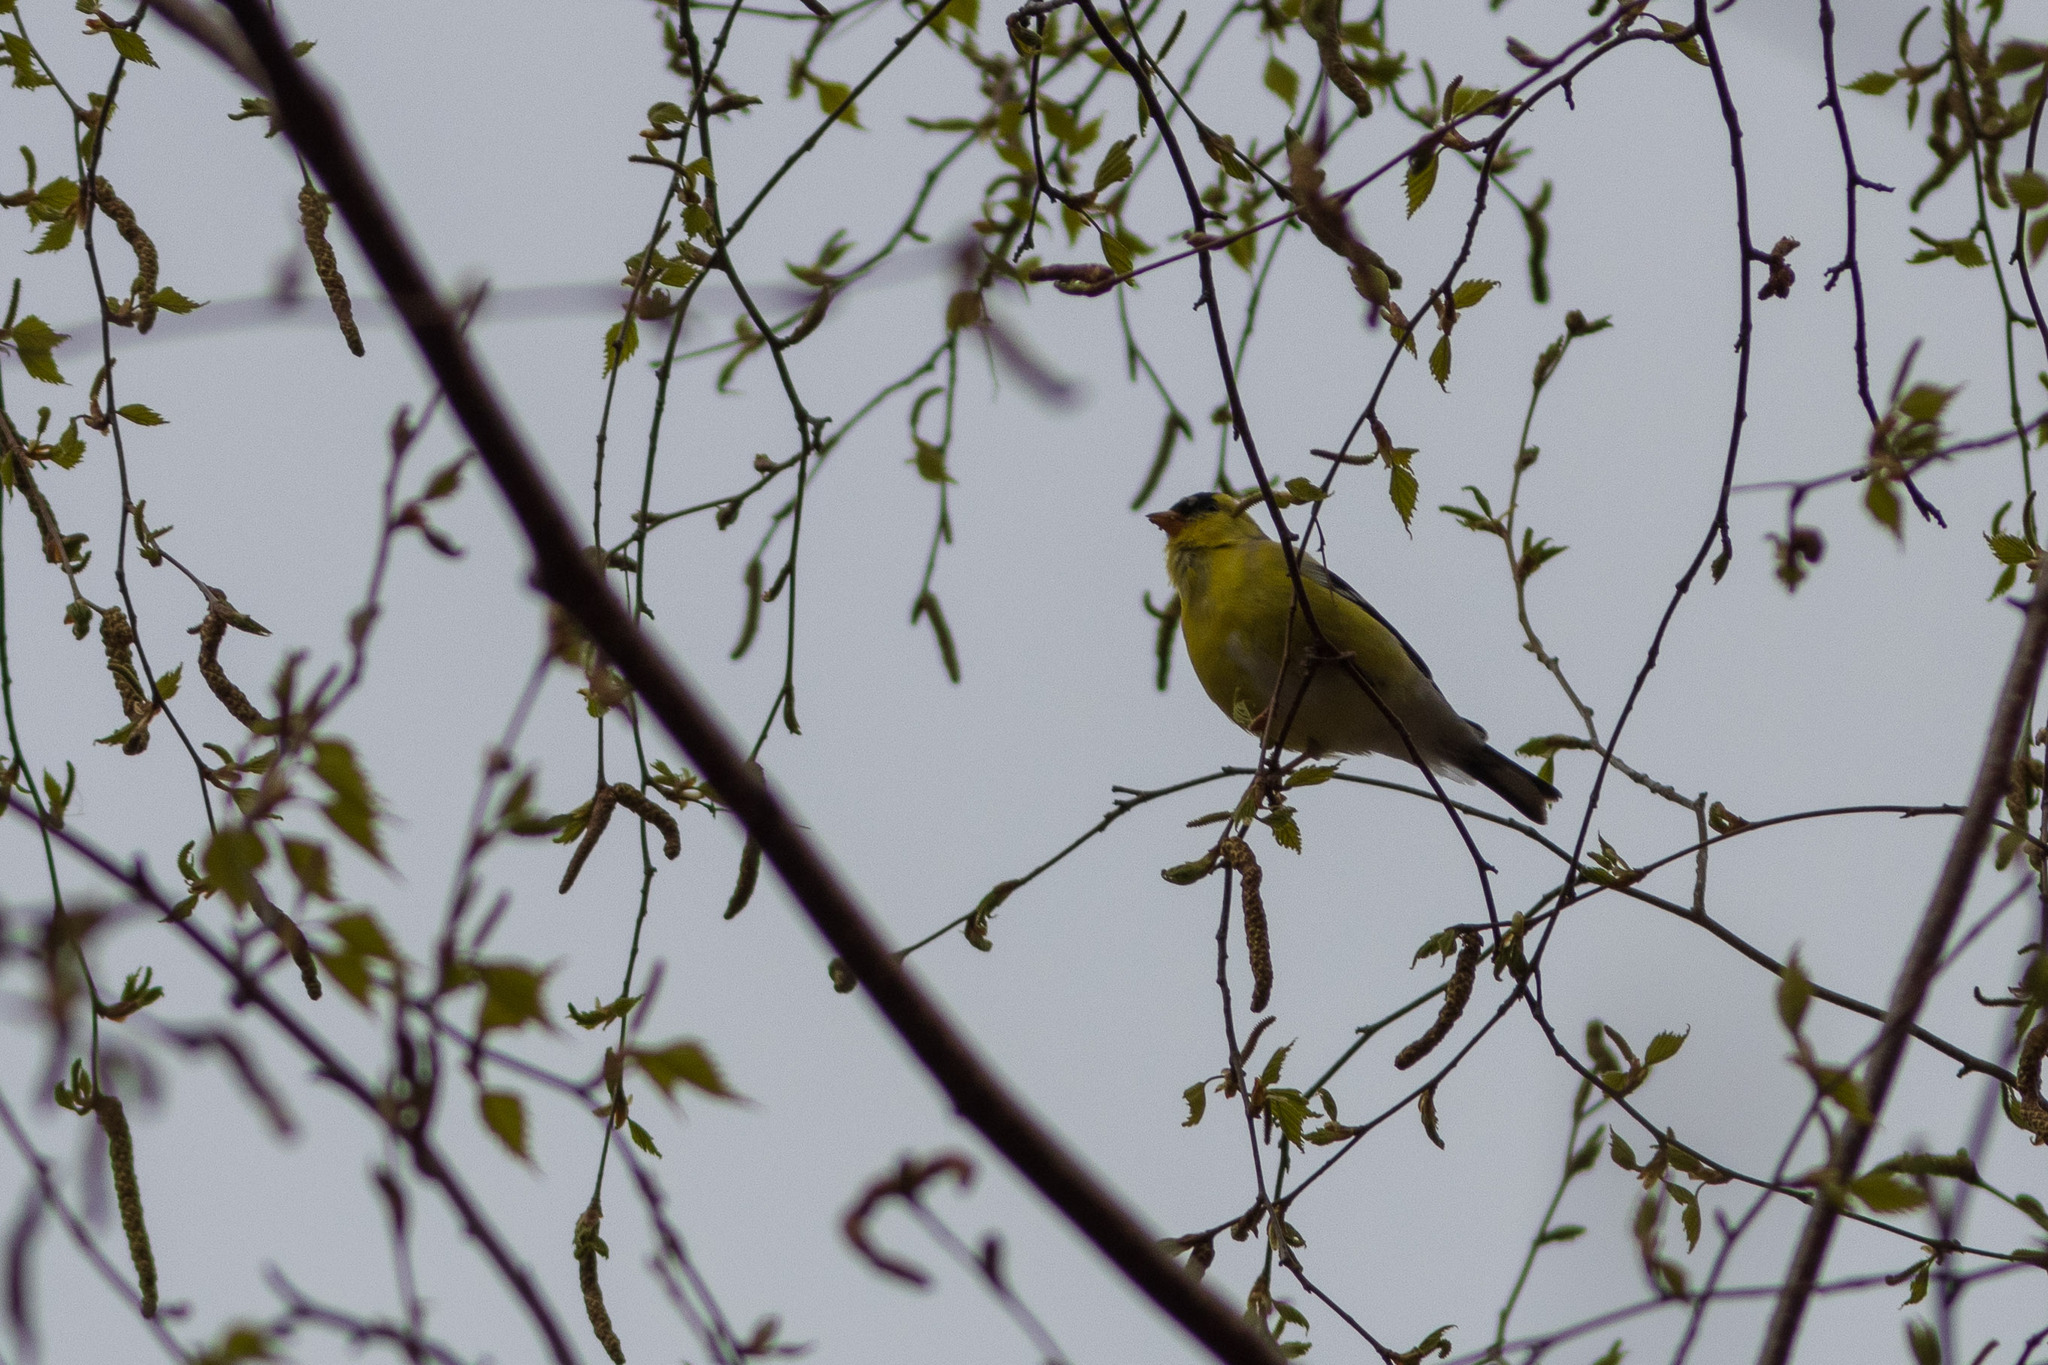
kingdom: Animalia
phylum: Chordata
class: Aves
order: Passeriformes
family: Fringillidae
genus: Spinus
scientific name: Spinus tristis
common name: American goldfinch
